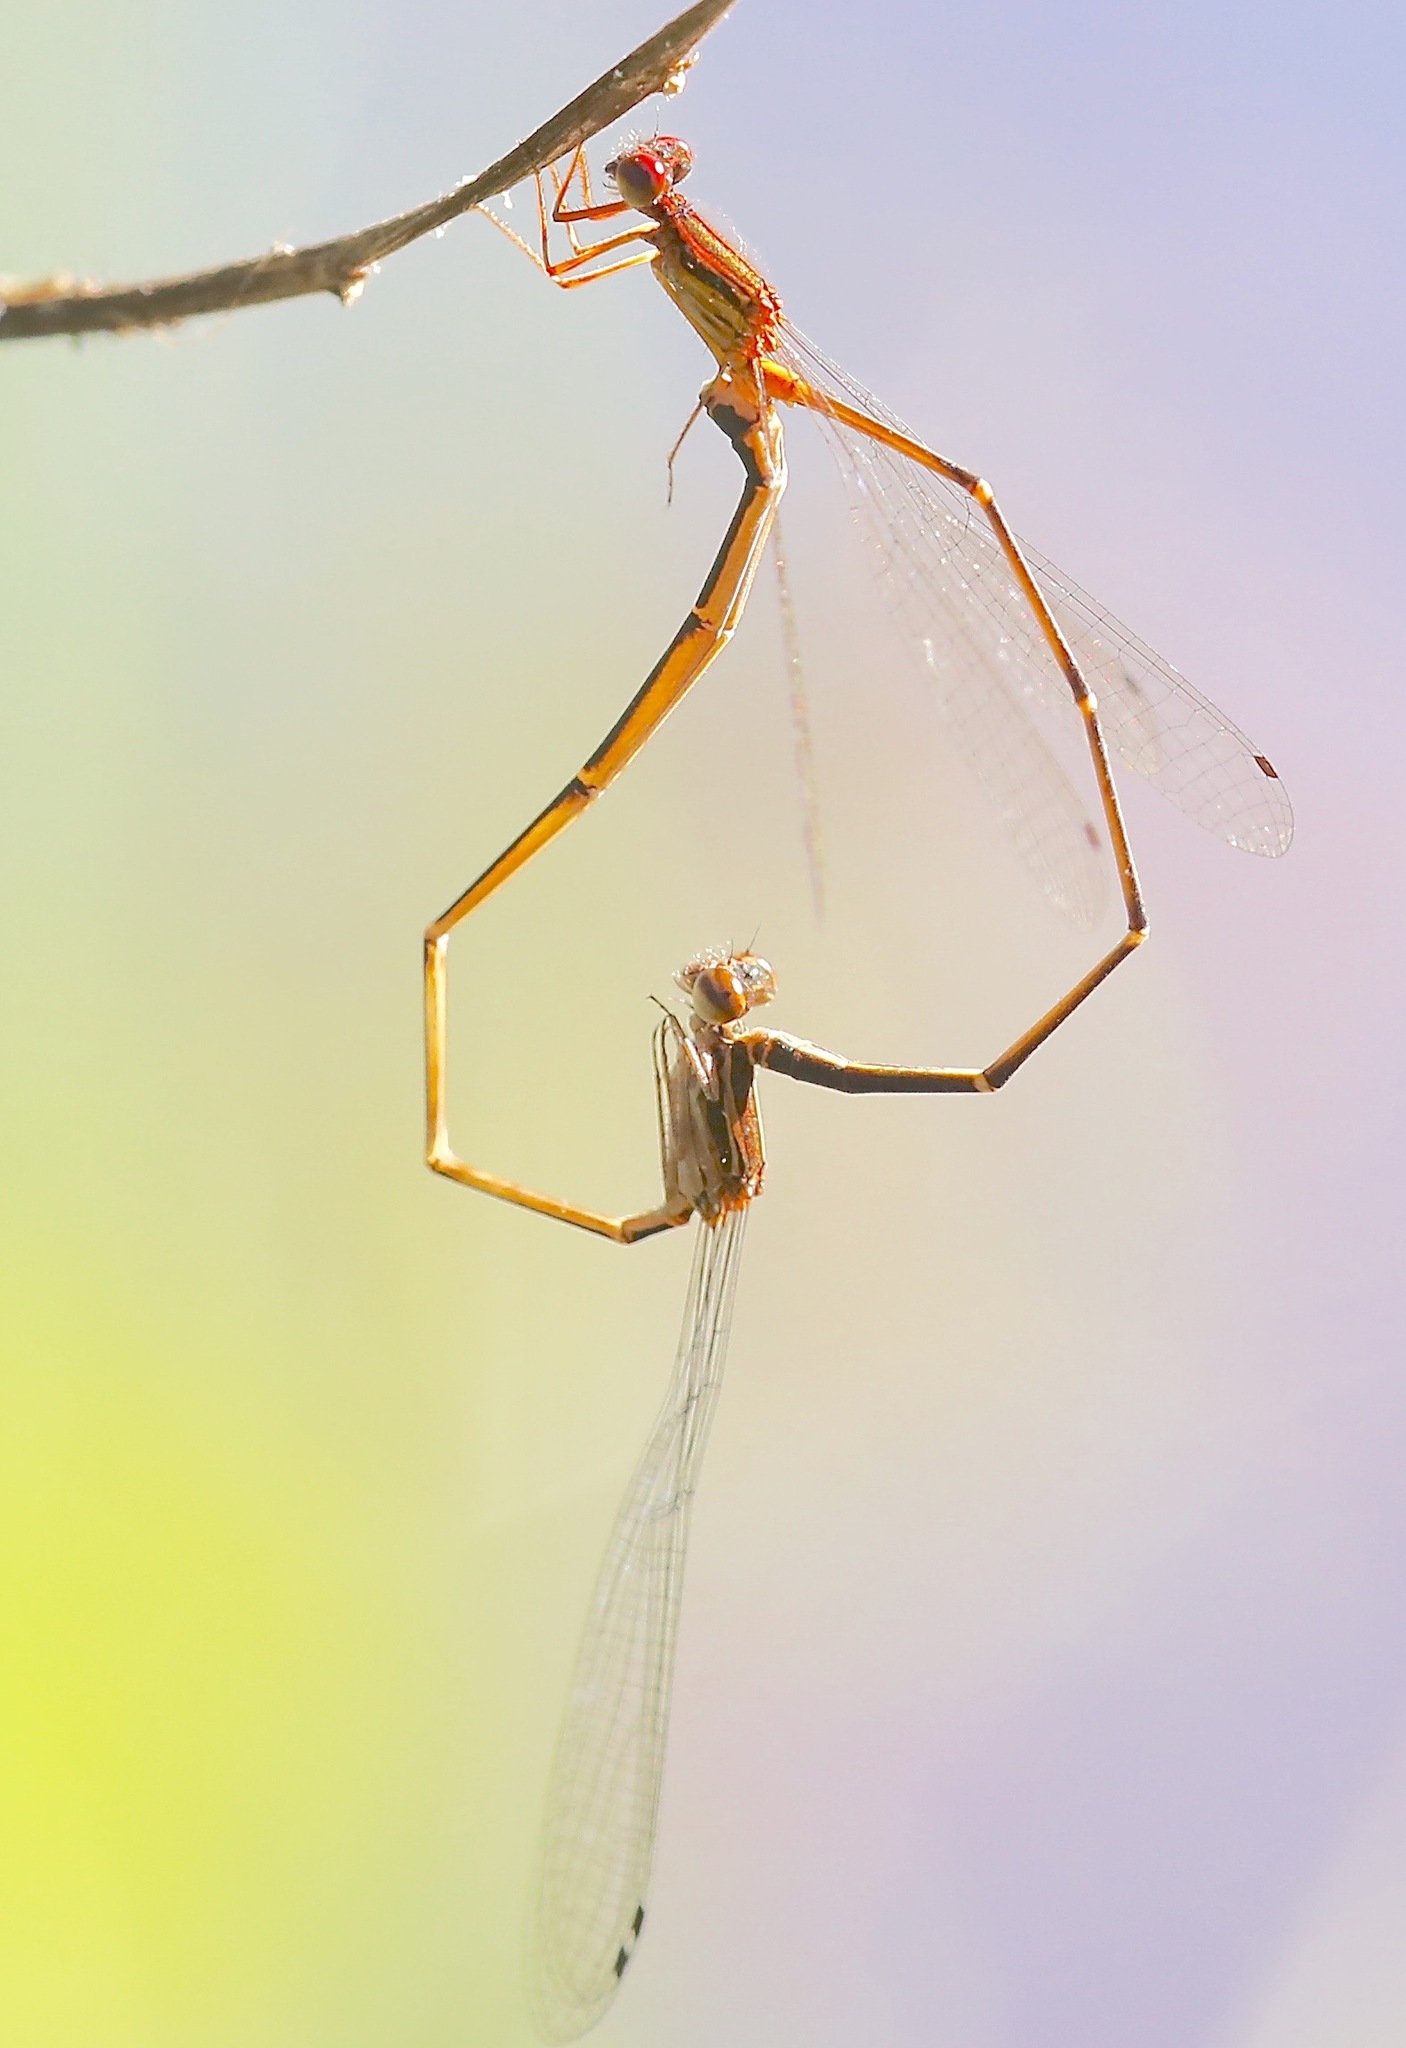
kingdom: Animalia
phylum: Arthropoda
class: Insecta
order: Odonata
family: Coenagrionidae
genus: Protoneura
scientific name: Protoneura cara
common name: Orange-striped threadtail
